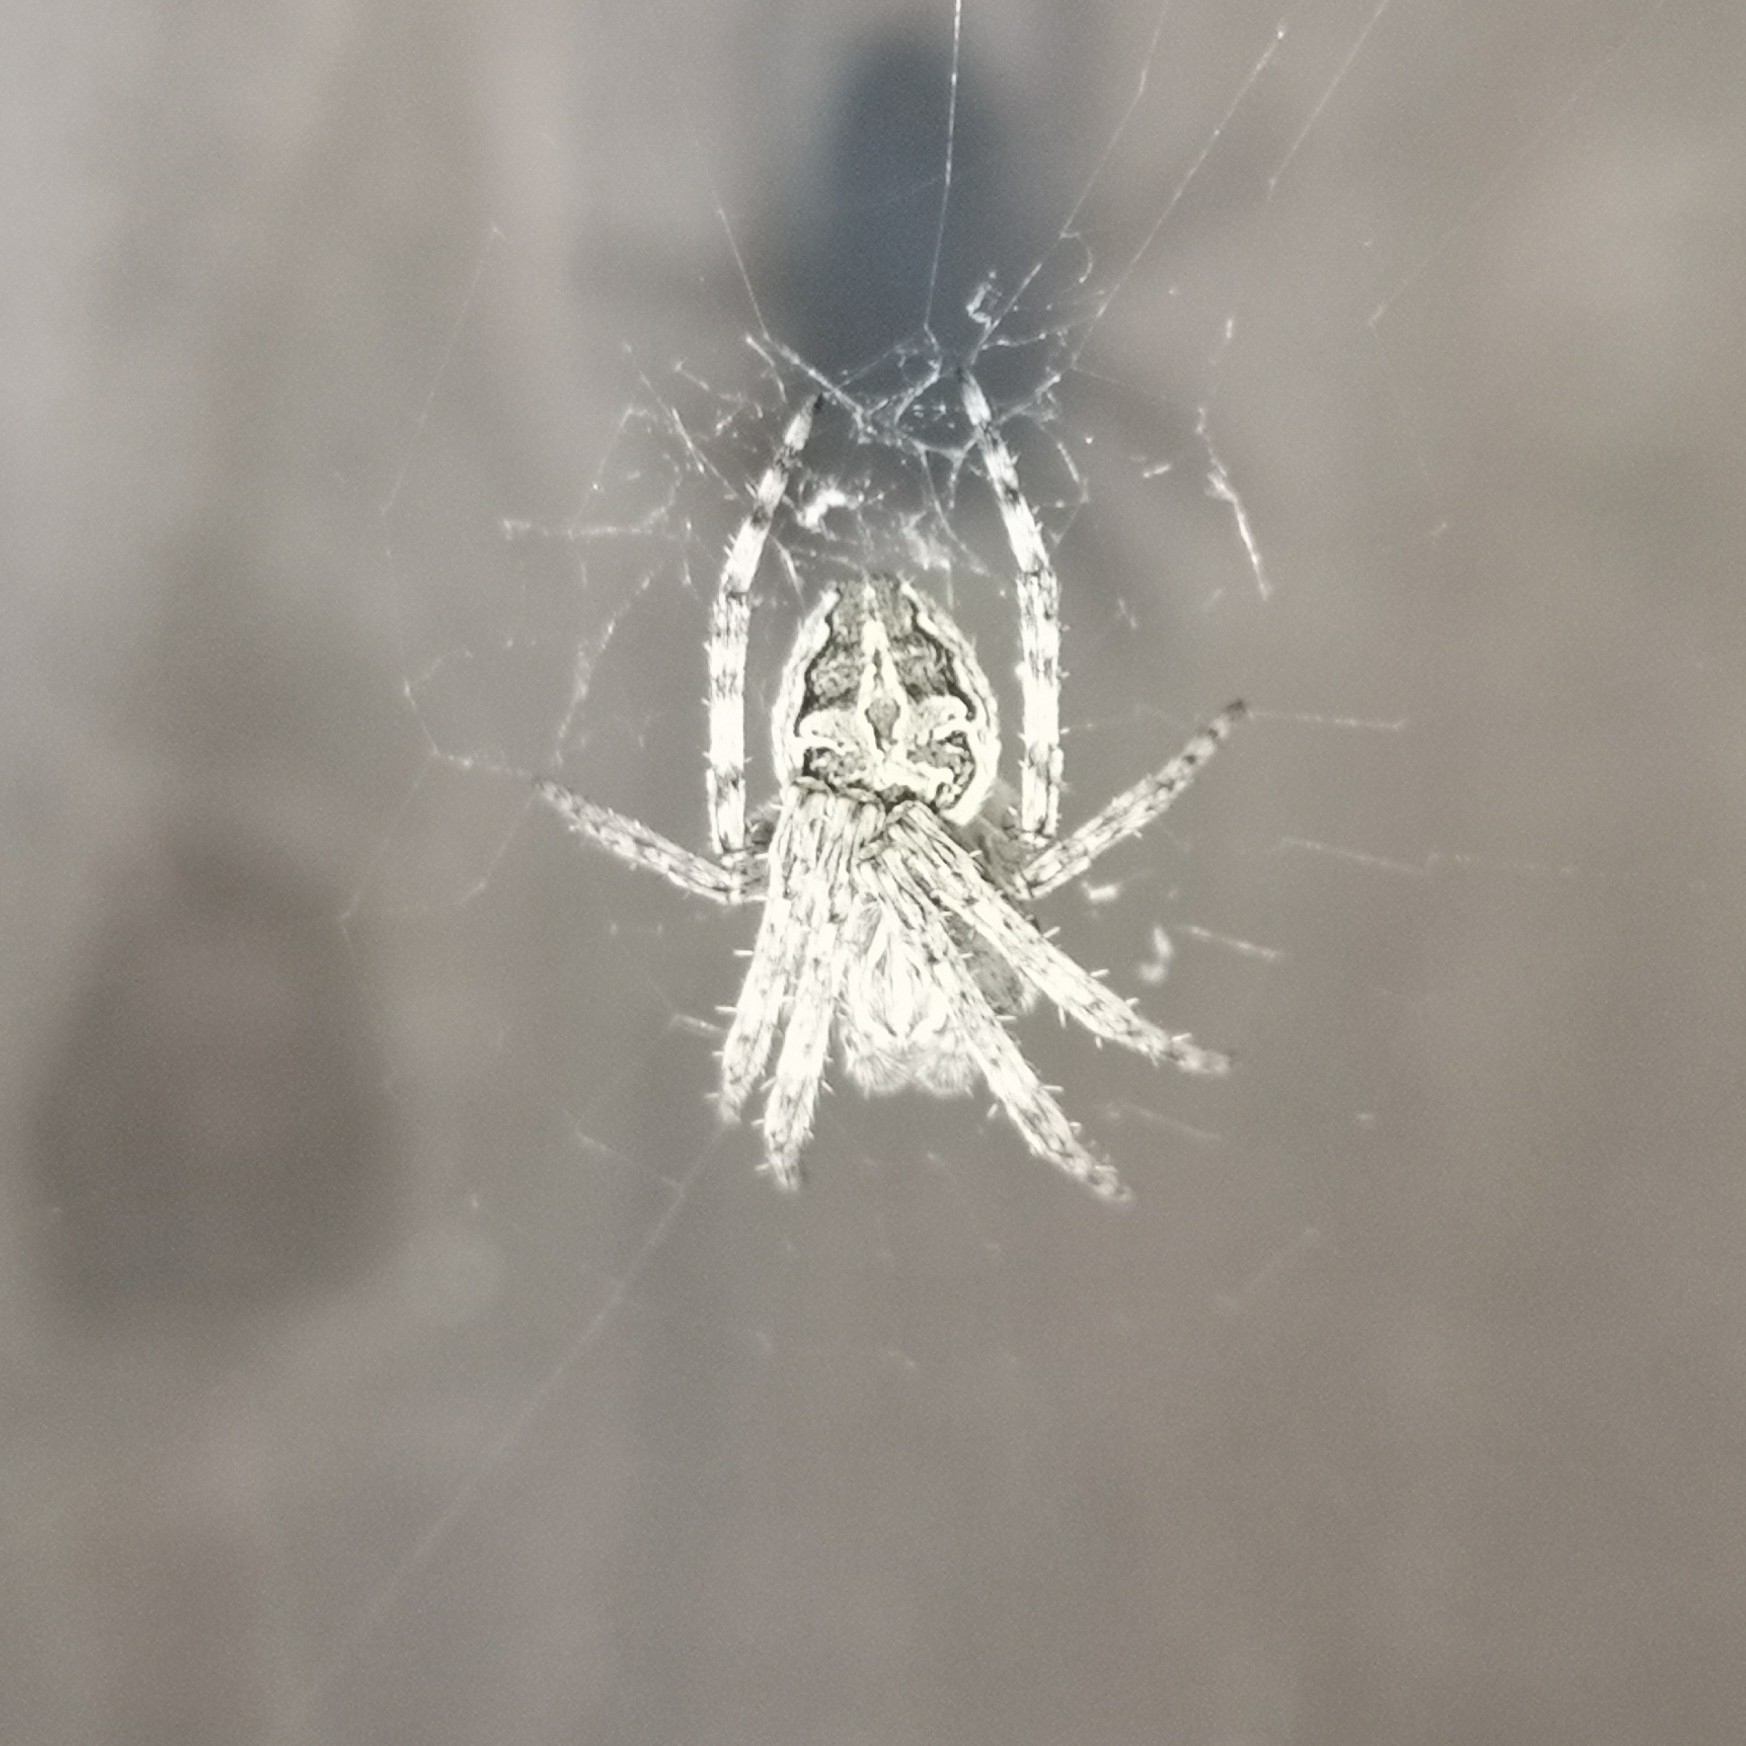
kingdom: Animalia
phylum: Arthropoda
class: Arachnida
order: Araneae
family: Araneidae
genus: Larinioides
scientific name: Larinioides sclopetarius
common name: Bridge orbweaver
